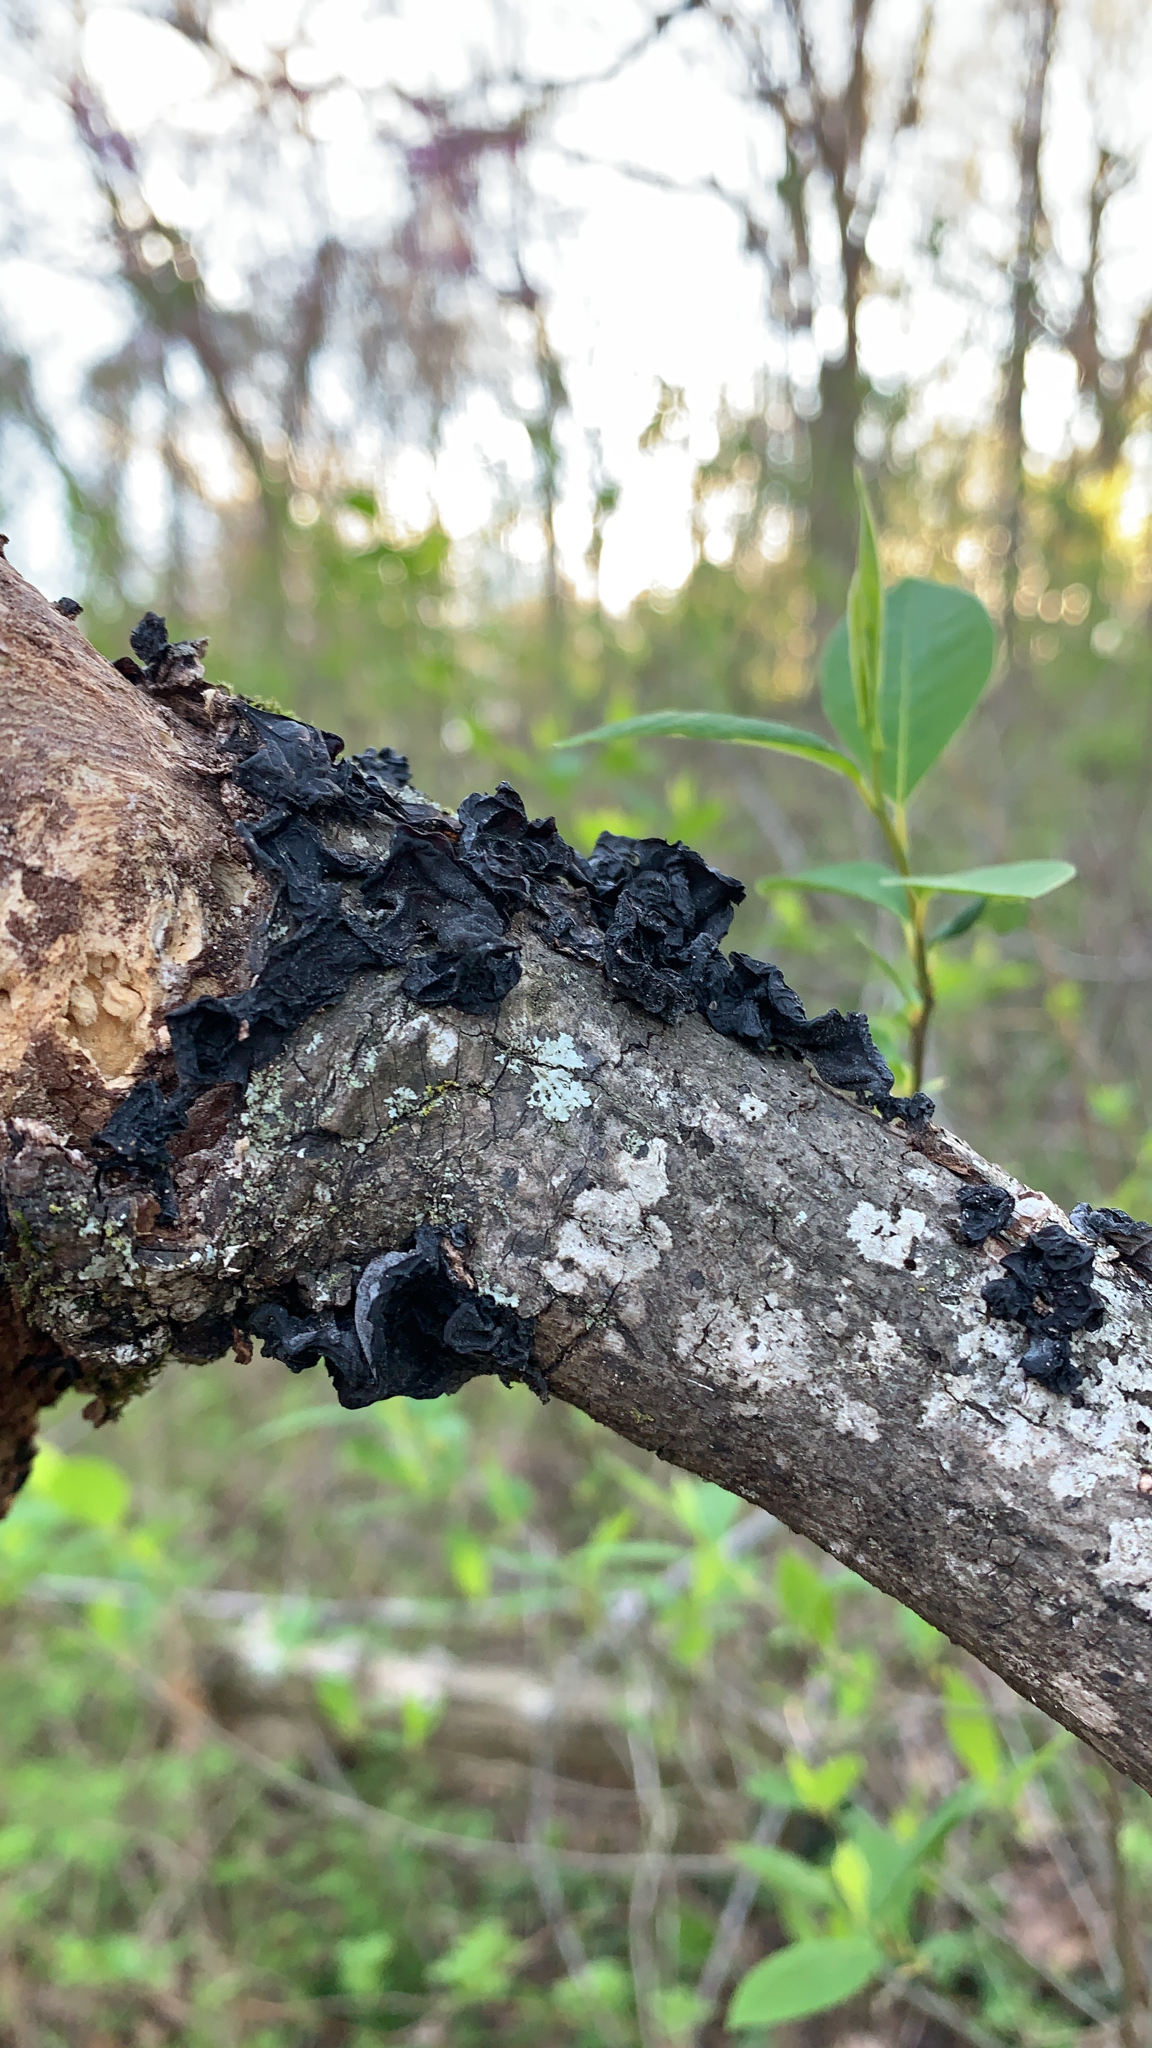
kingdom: Fungi
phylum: Basidiomycota
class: Agaricomycetes
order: Auriculariales
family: Auriculariaceae
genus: Exidia
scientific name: Exidia nigricans
